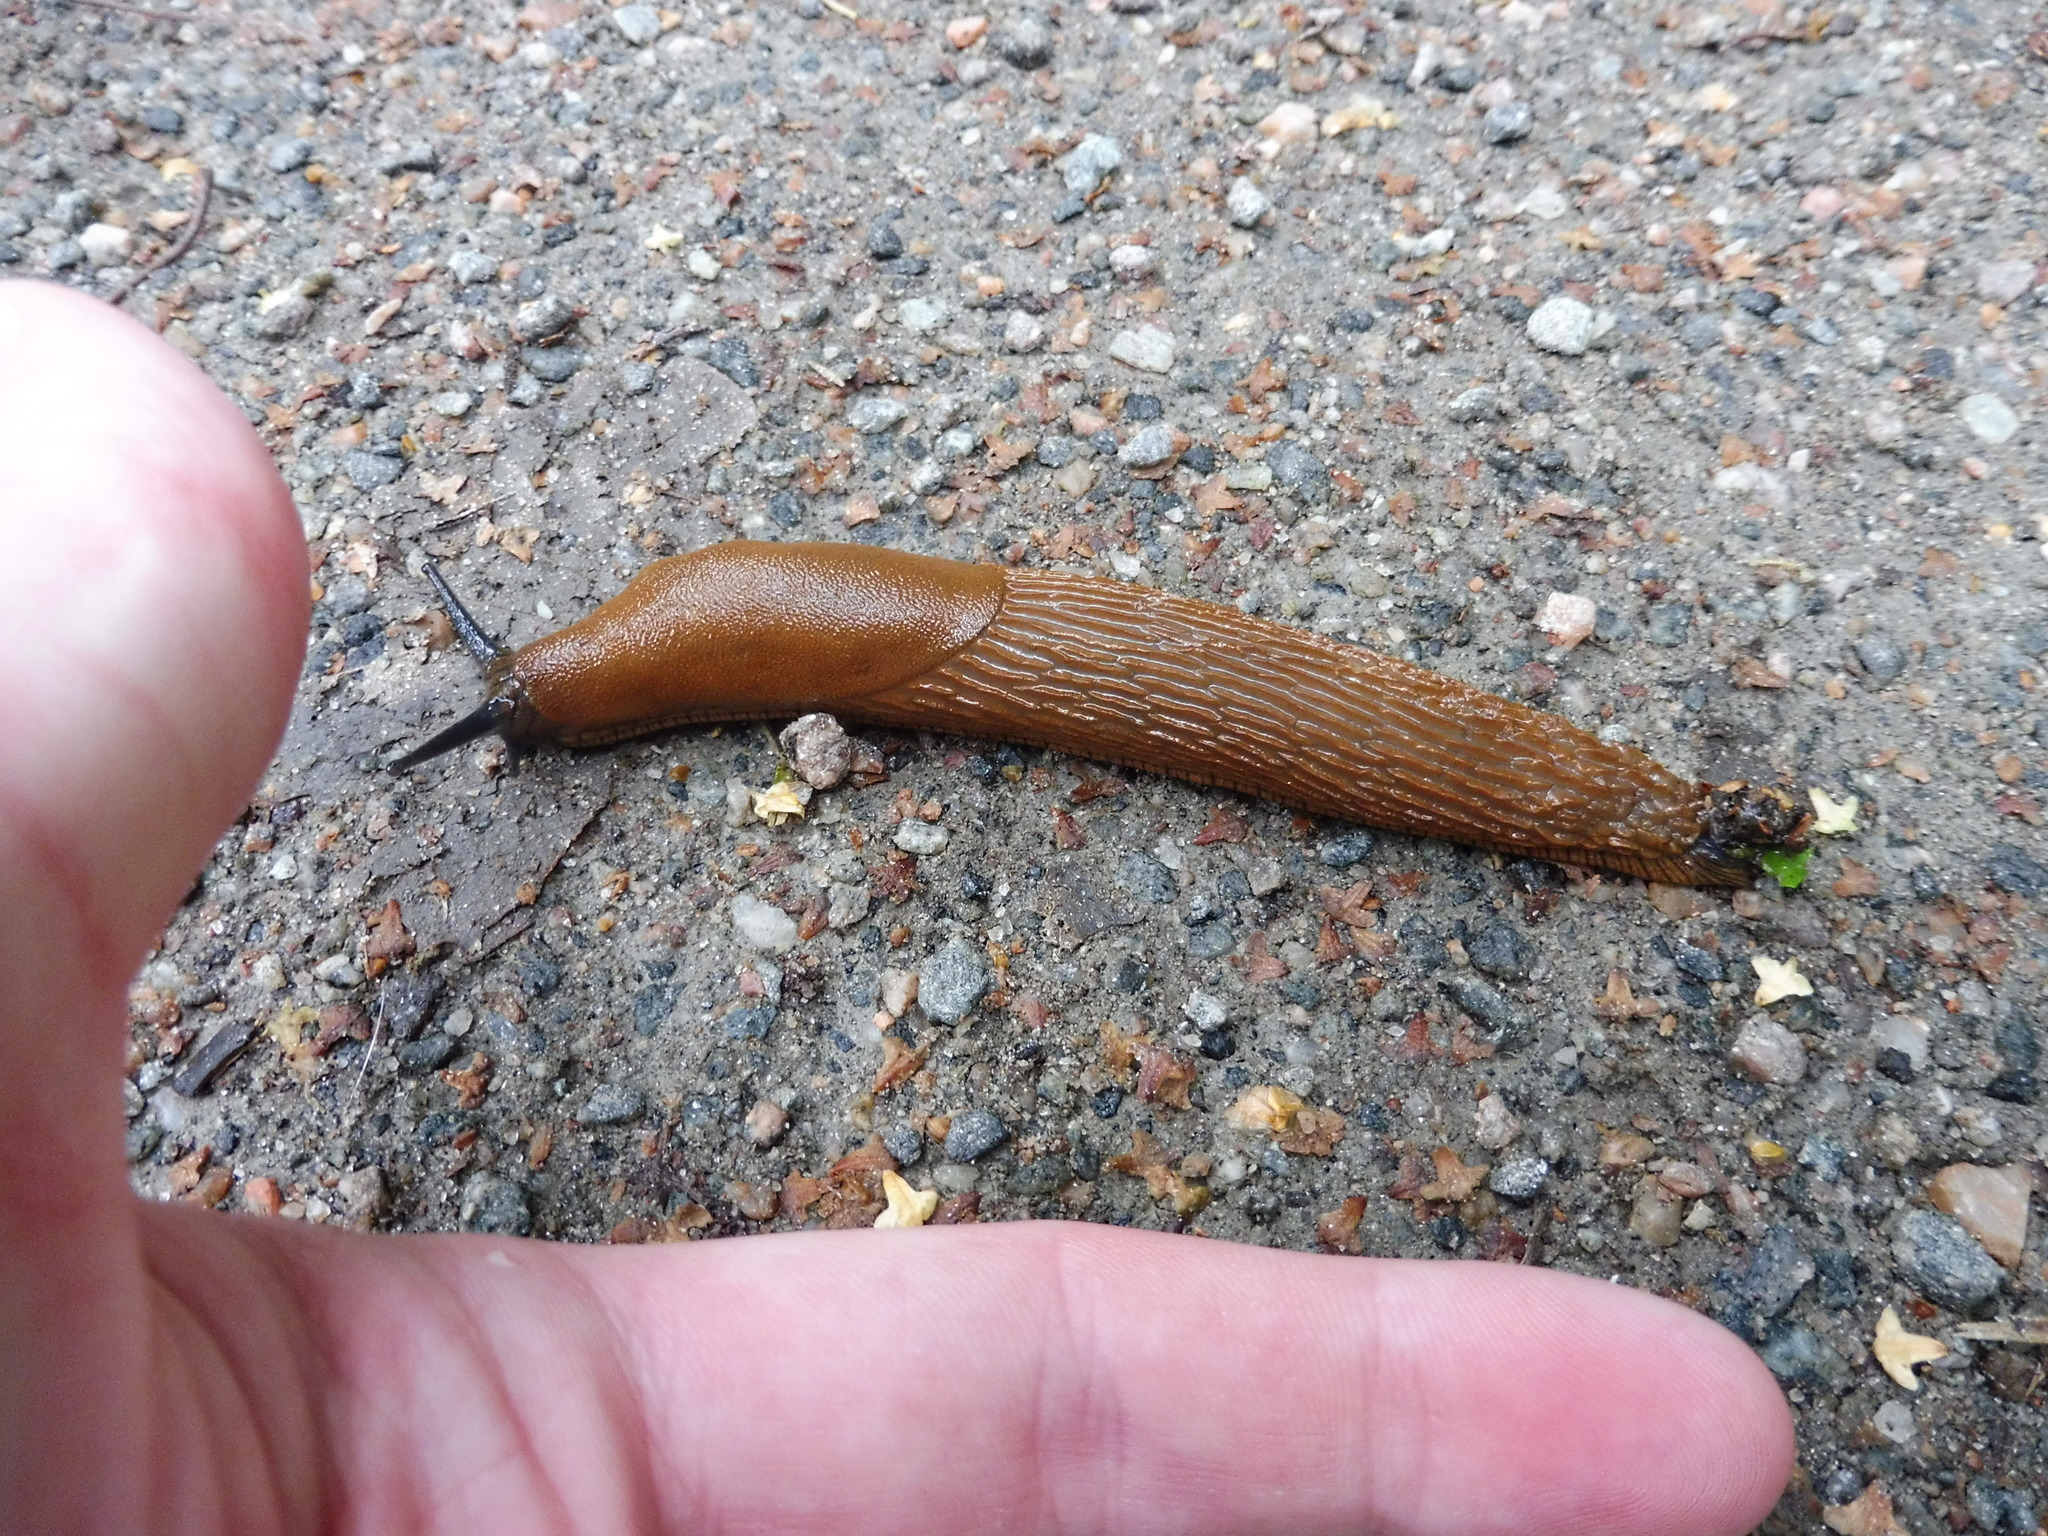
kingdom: Animalia
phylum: Mollusca
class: Gastropoda
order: Stylommatophora
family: Arionidae
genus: Arion
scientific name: Arion vulgaris
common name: Lusitanian slug
